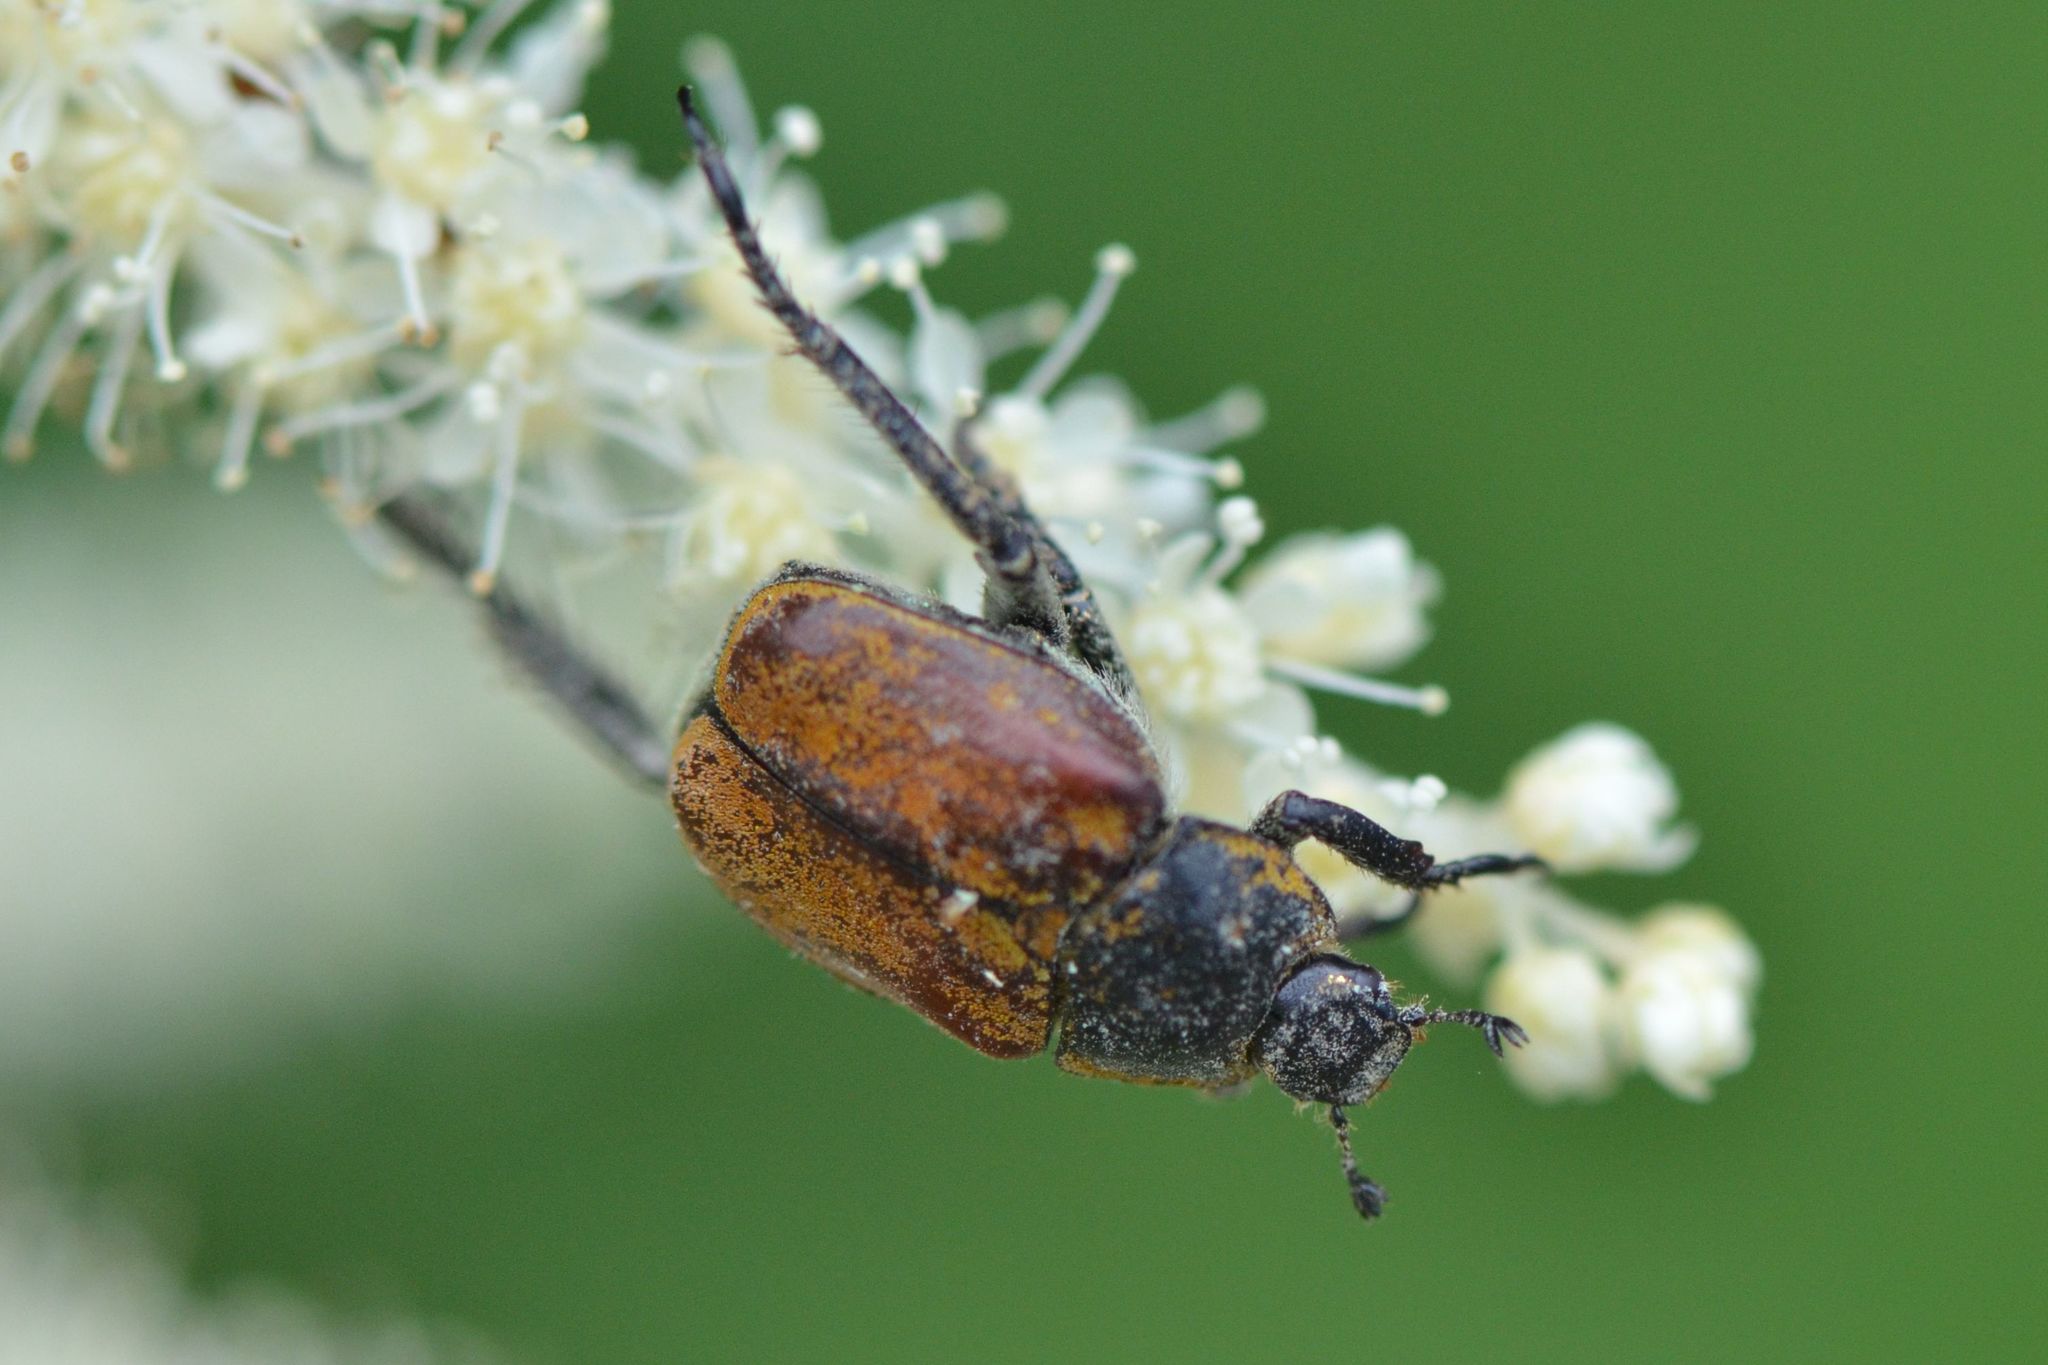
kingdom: Animalia
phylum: Arthropoda
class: Insecta
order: Coleoptera
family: Scarabaeidae
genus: Hoplia
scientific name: Hoplia argentea
